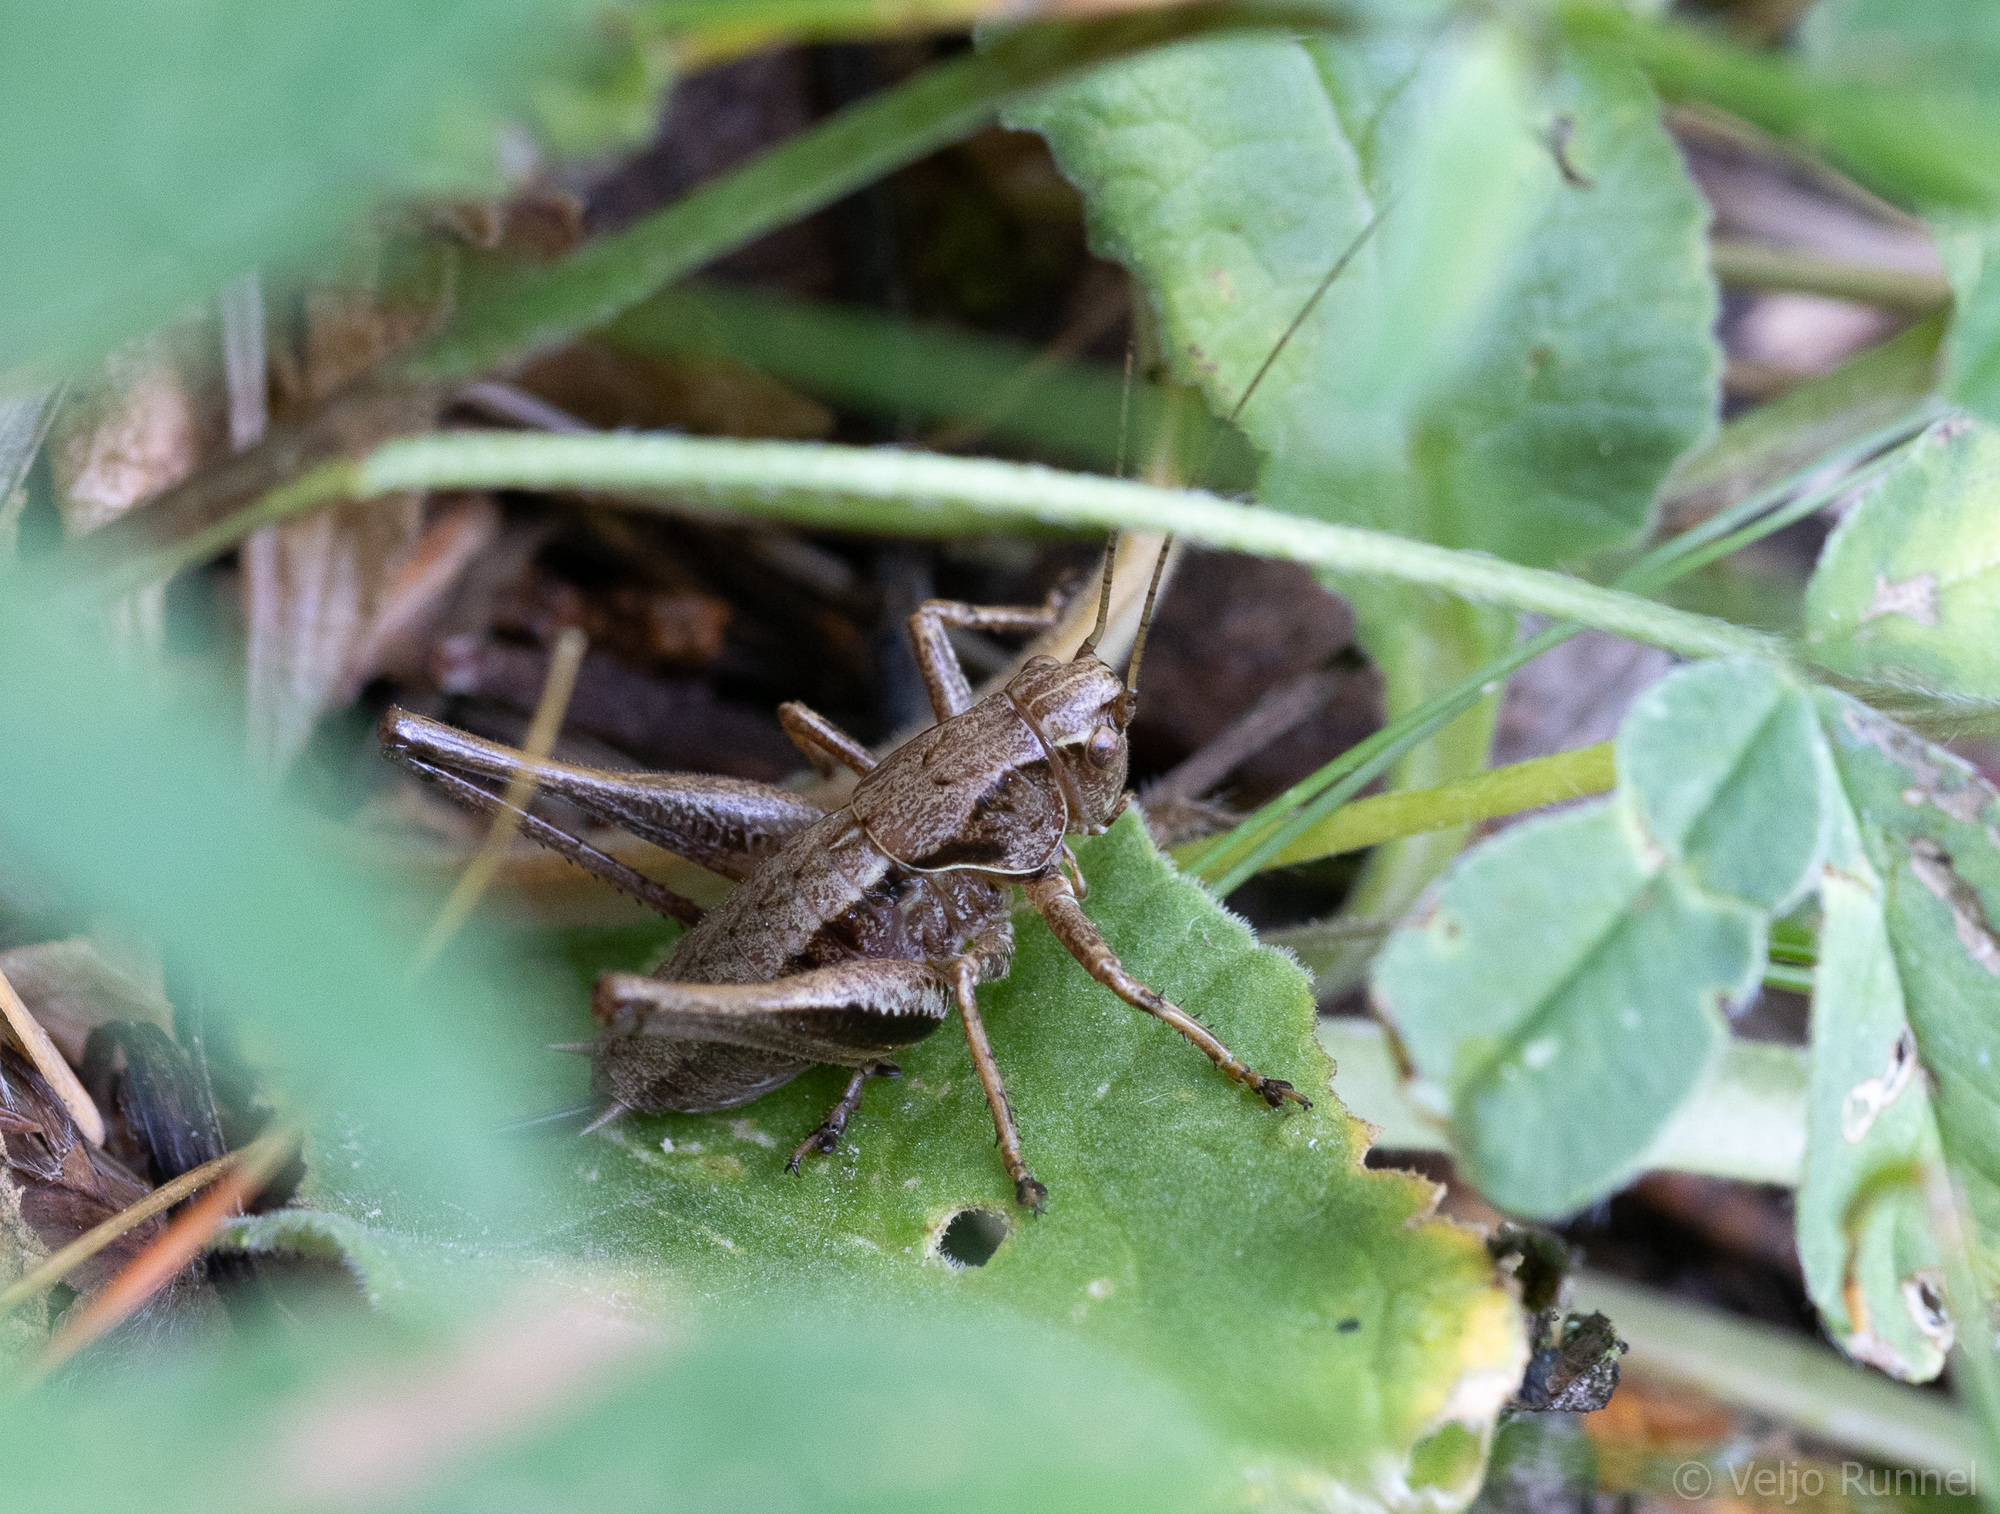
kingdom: Animalia
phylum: Arthropoda
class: Insecta
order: Orthoptera
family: Tettigoniidae
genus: Pholidoptera
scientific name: Pholidoptera griseoaptera
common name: Dark bush-cricket
